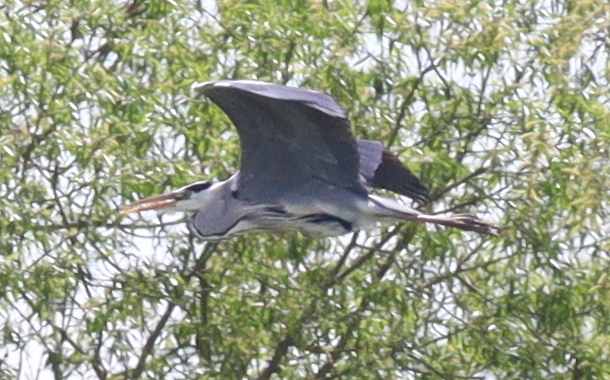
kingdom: Animalia
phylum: Chordata
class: Aves
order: Pelecaniformes
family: Ardeidae
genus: Ardea
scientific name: Ardea cinerea
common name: Grey heron
